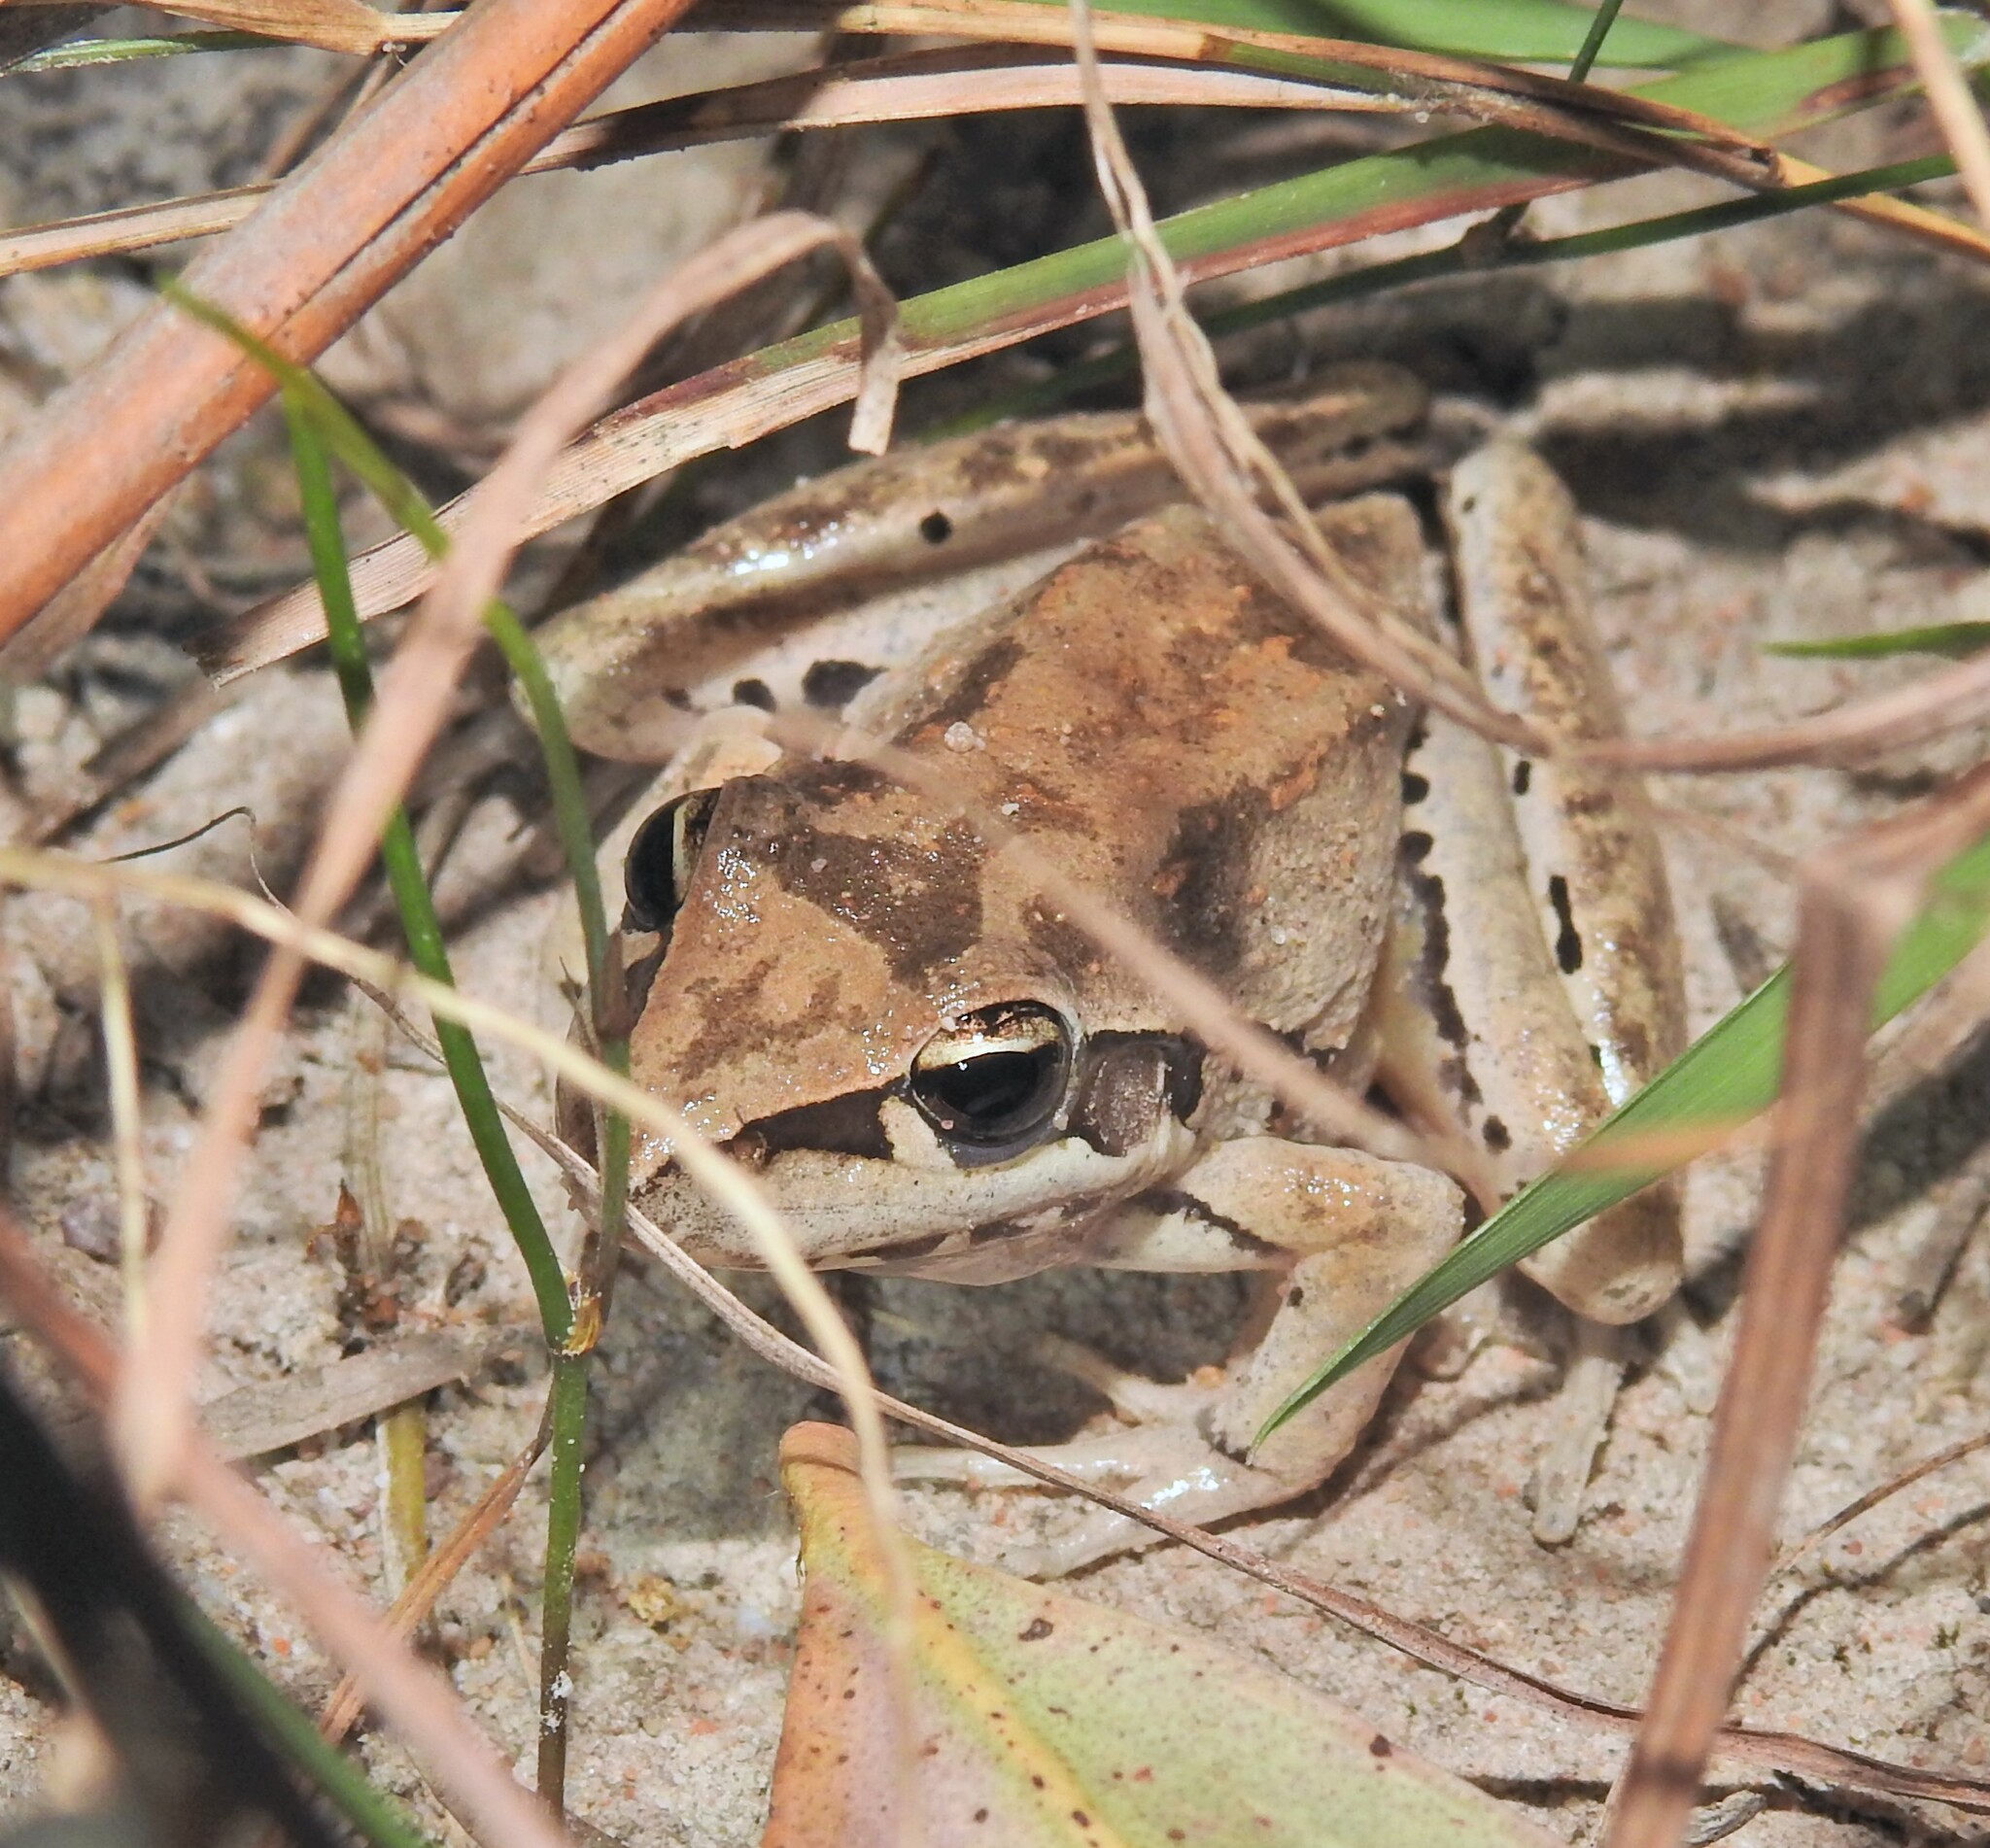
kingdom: Animalia
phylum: Chordata
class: Amphibia
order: Anura
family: Pelodryadidae
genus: Litoria
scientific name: Litoria latopalmata
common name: Broad-palmed rocket frog
